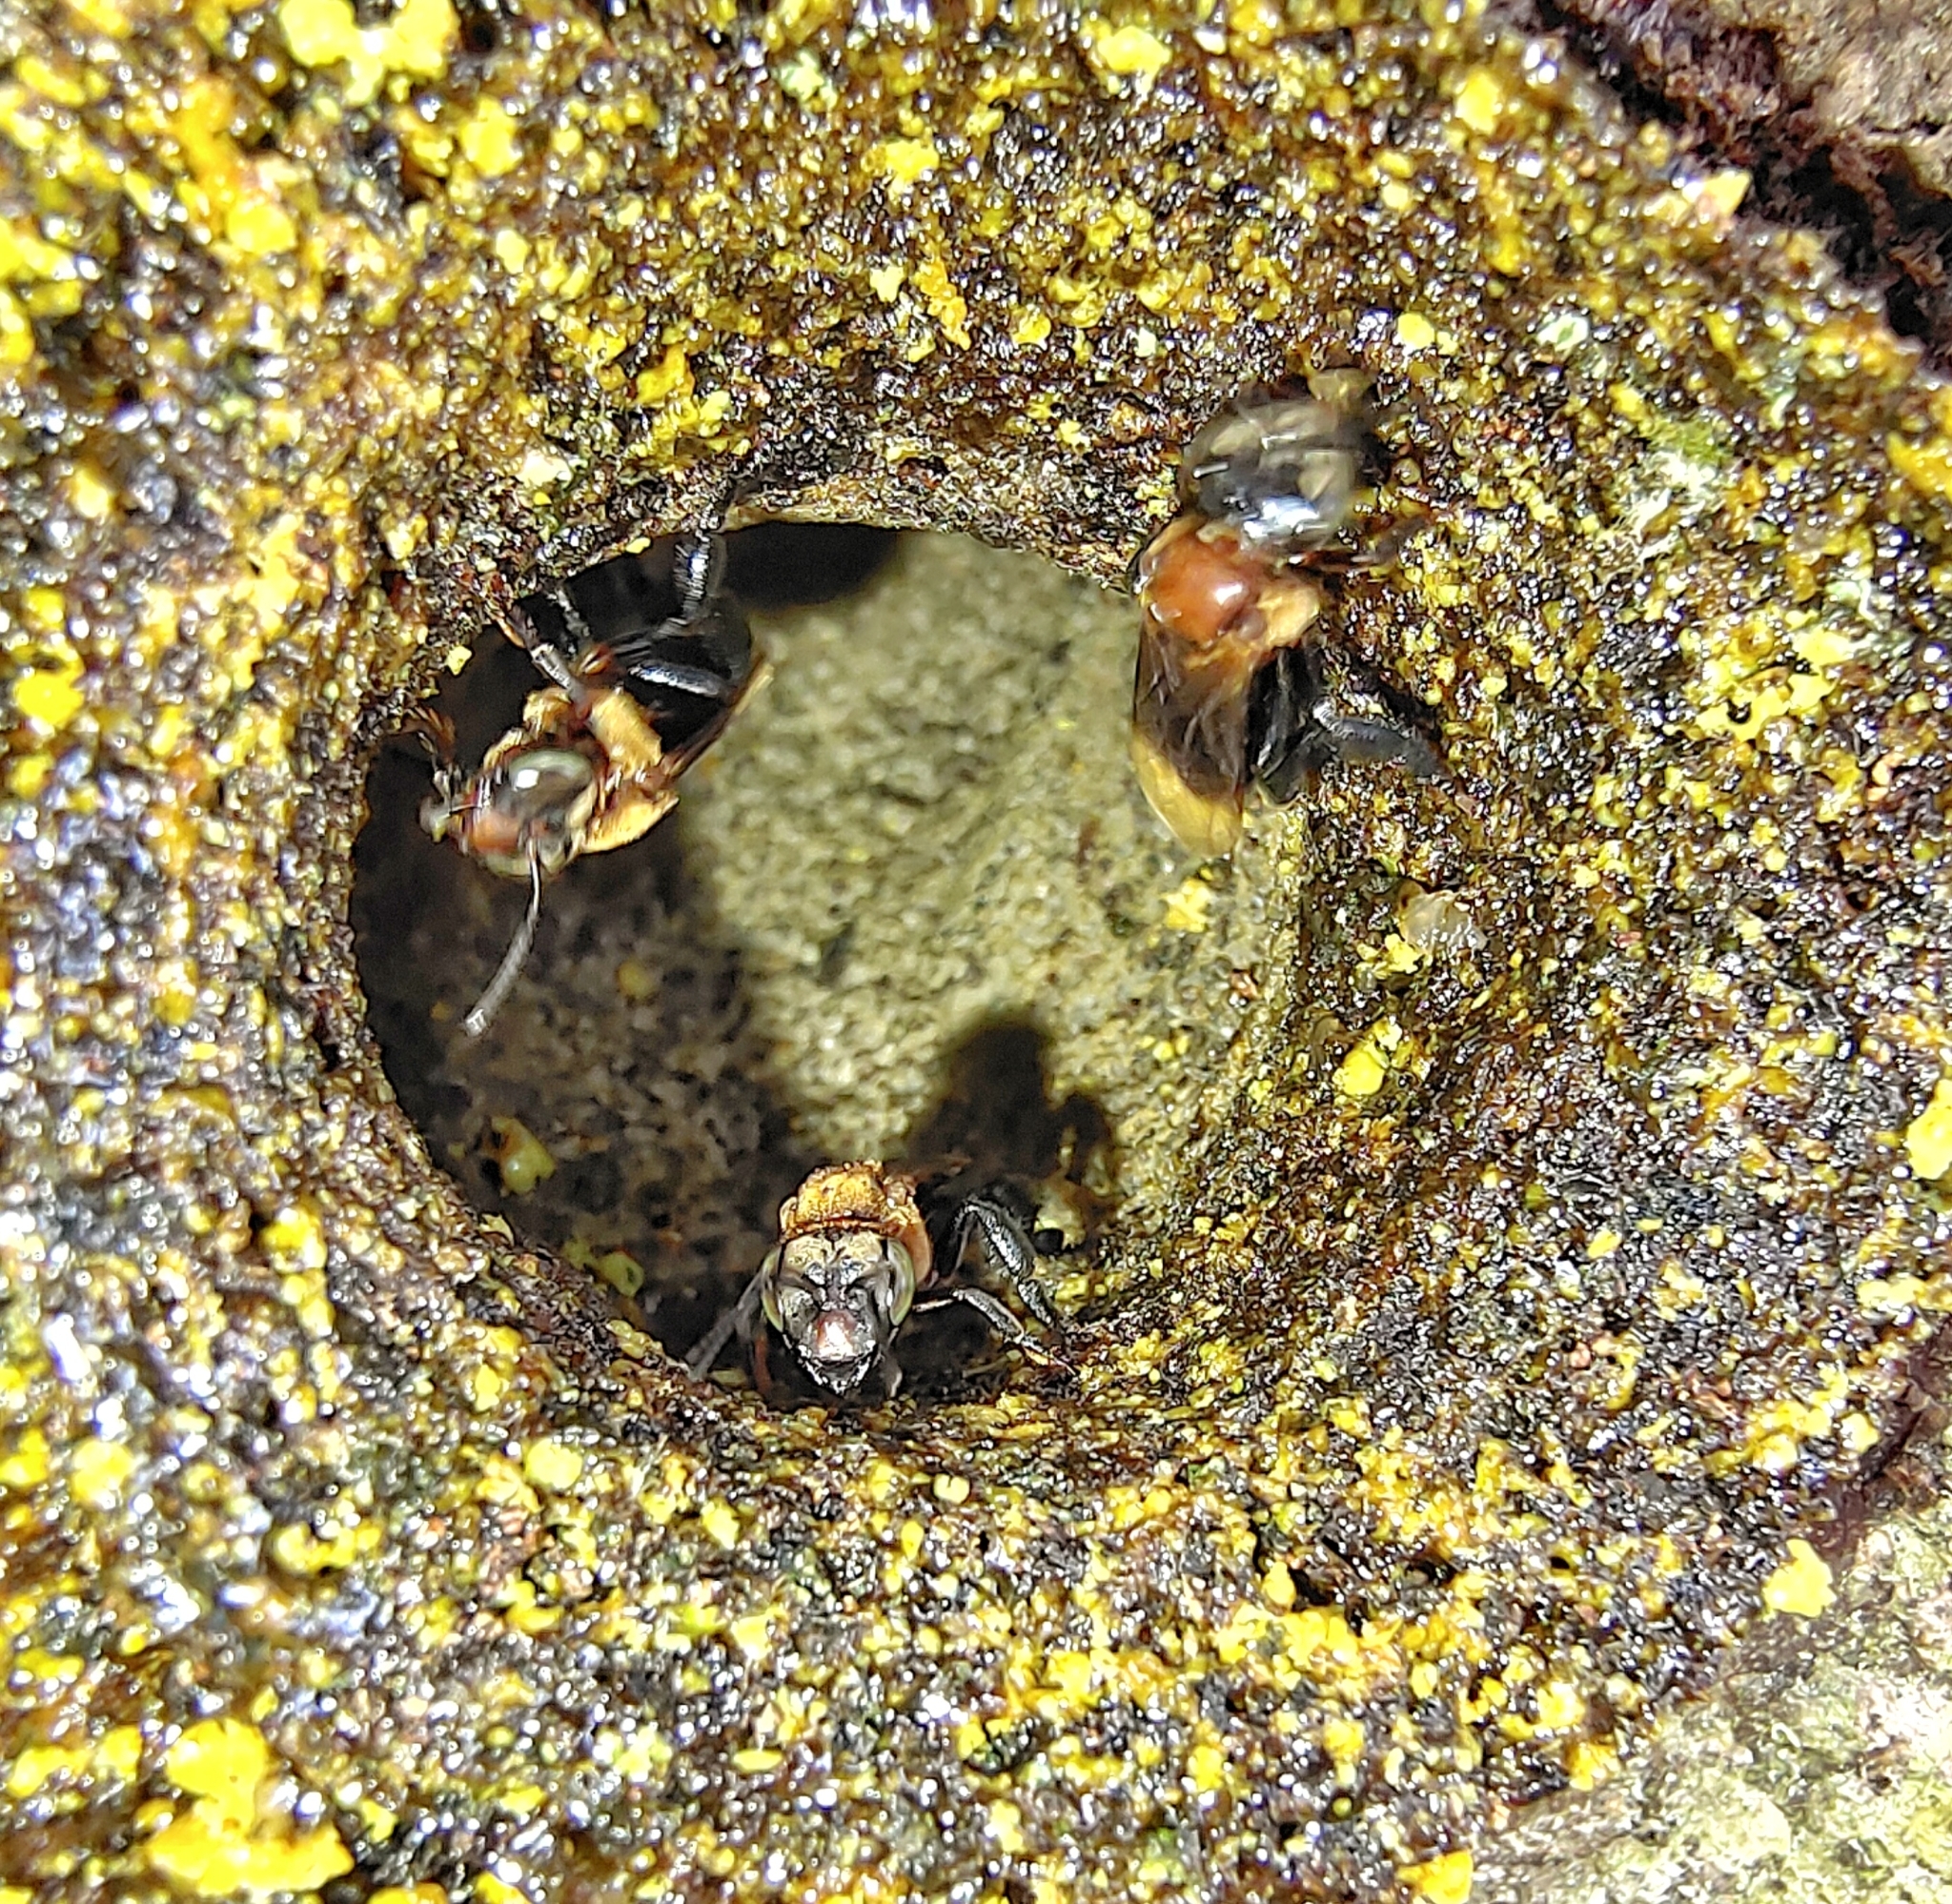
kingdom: Animalia
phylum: Arthropoda
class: Insecta
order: Hymenoptera
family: Apidae
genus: Geniotrigona
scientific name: Geniotrigona thoracica
